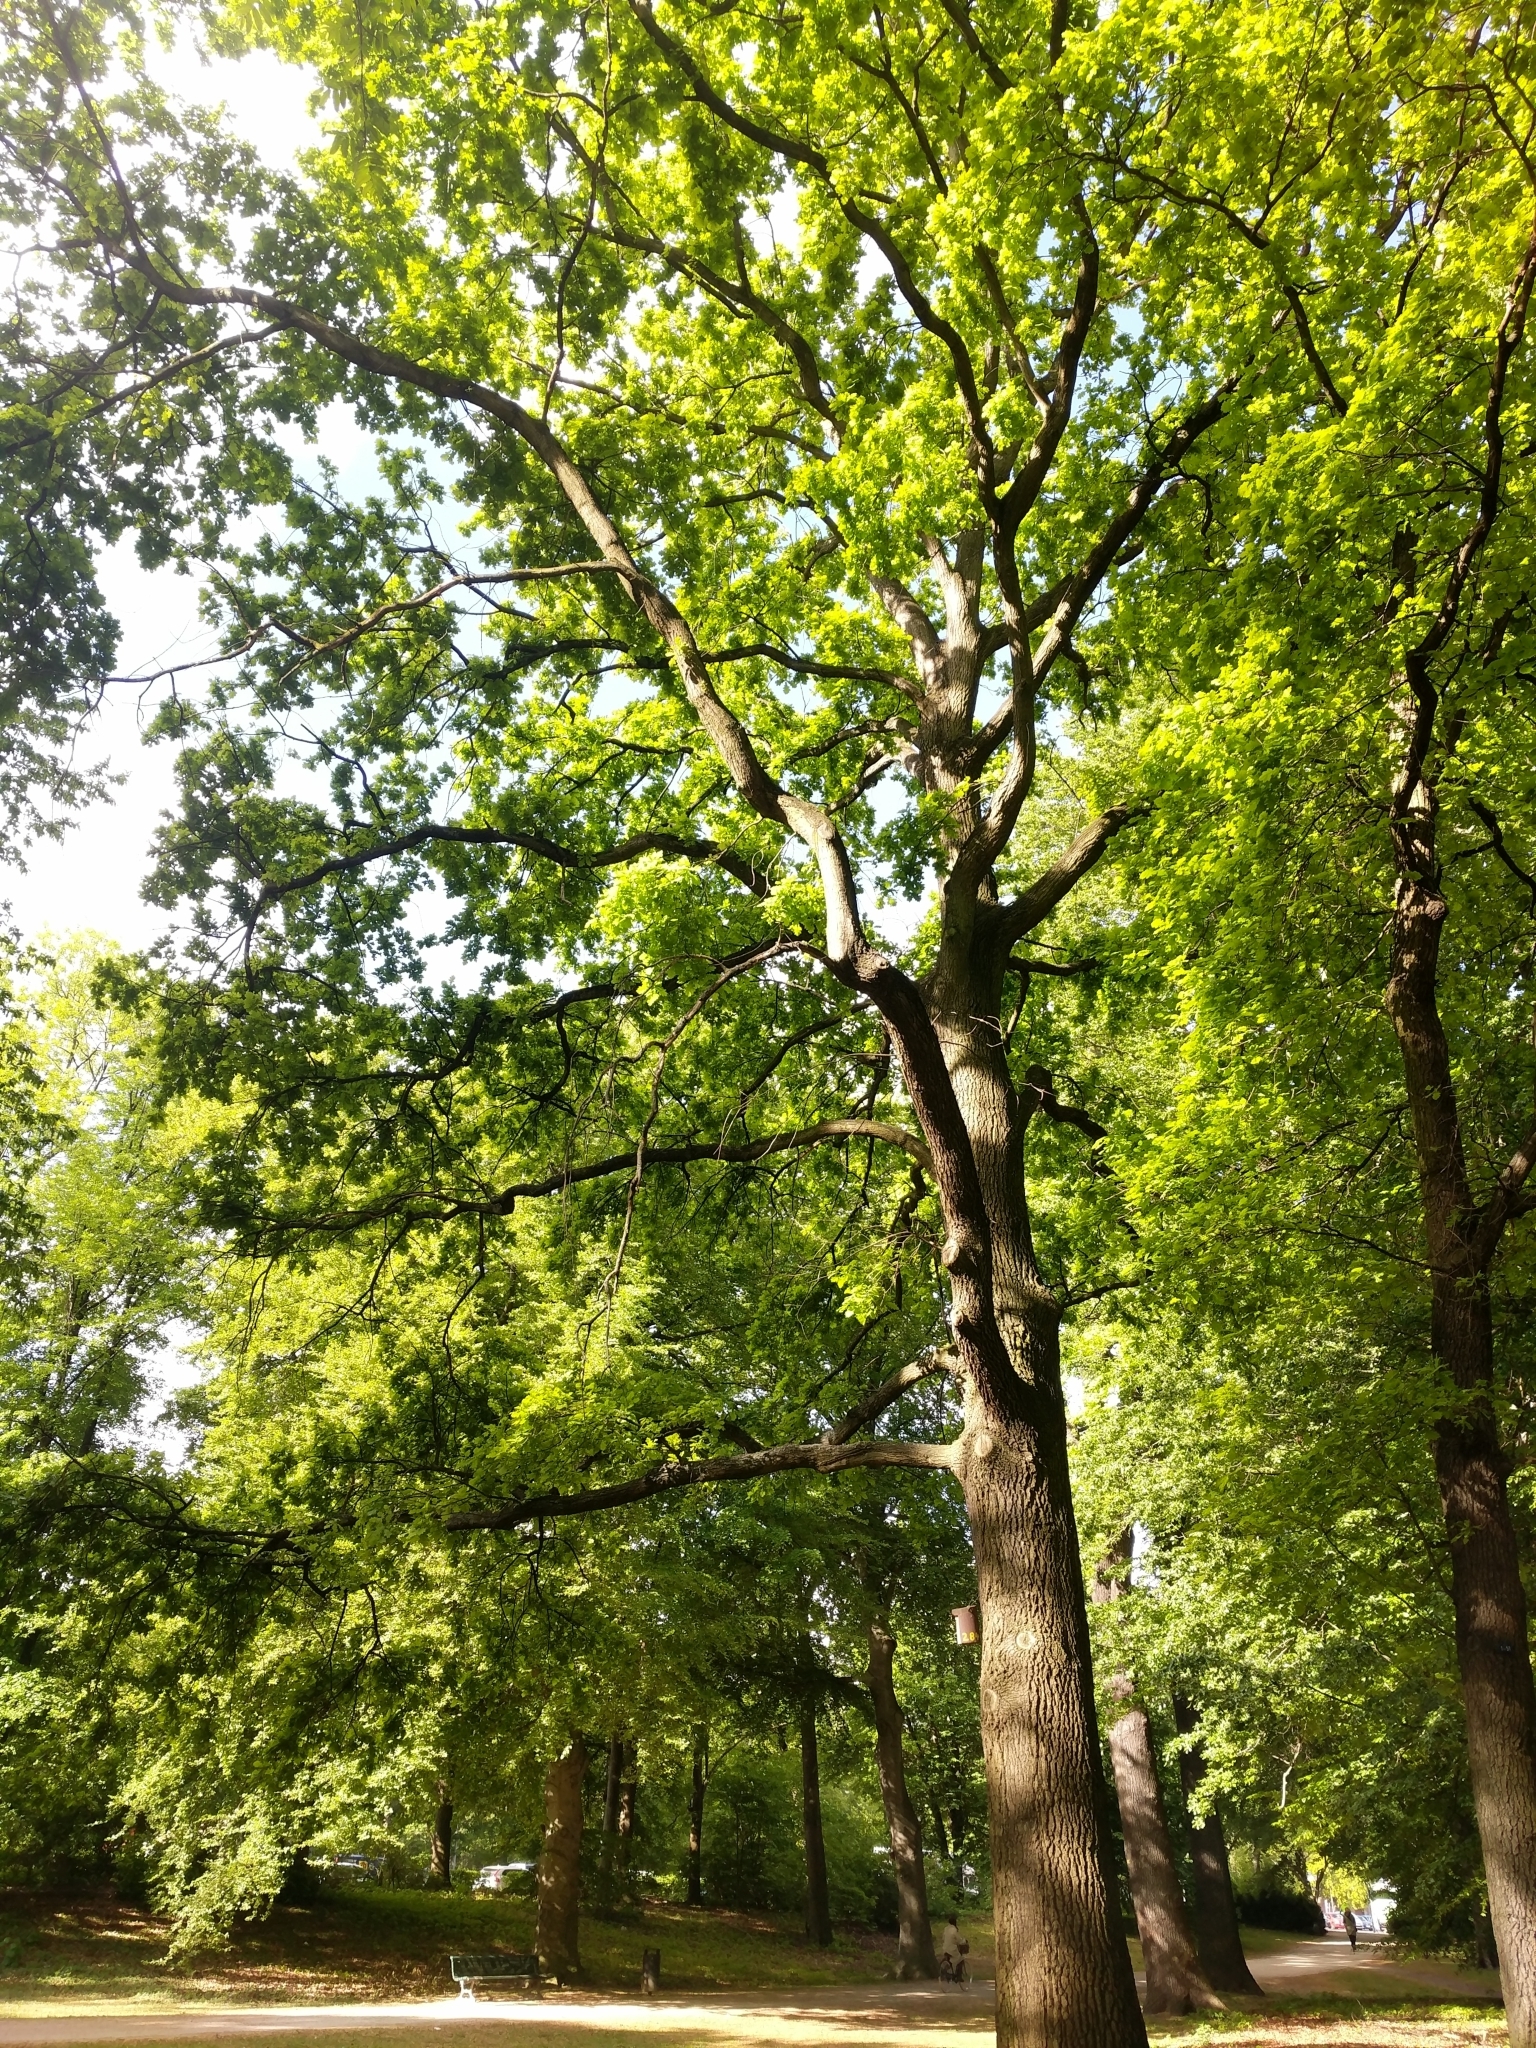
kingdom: Plantae
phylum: Tracheophyta
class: Magnoliopsida
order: Fagales
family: Fagaceae
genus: Quercus
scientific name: Quercus robur
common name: Pedunculate oak
